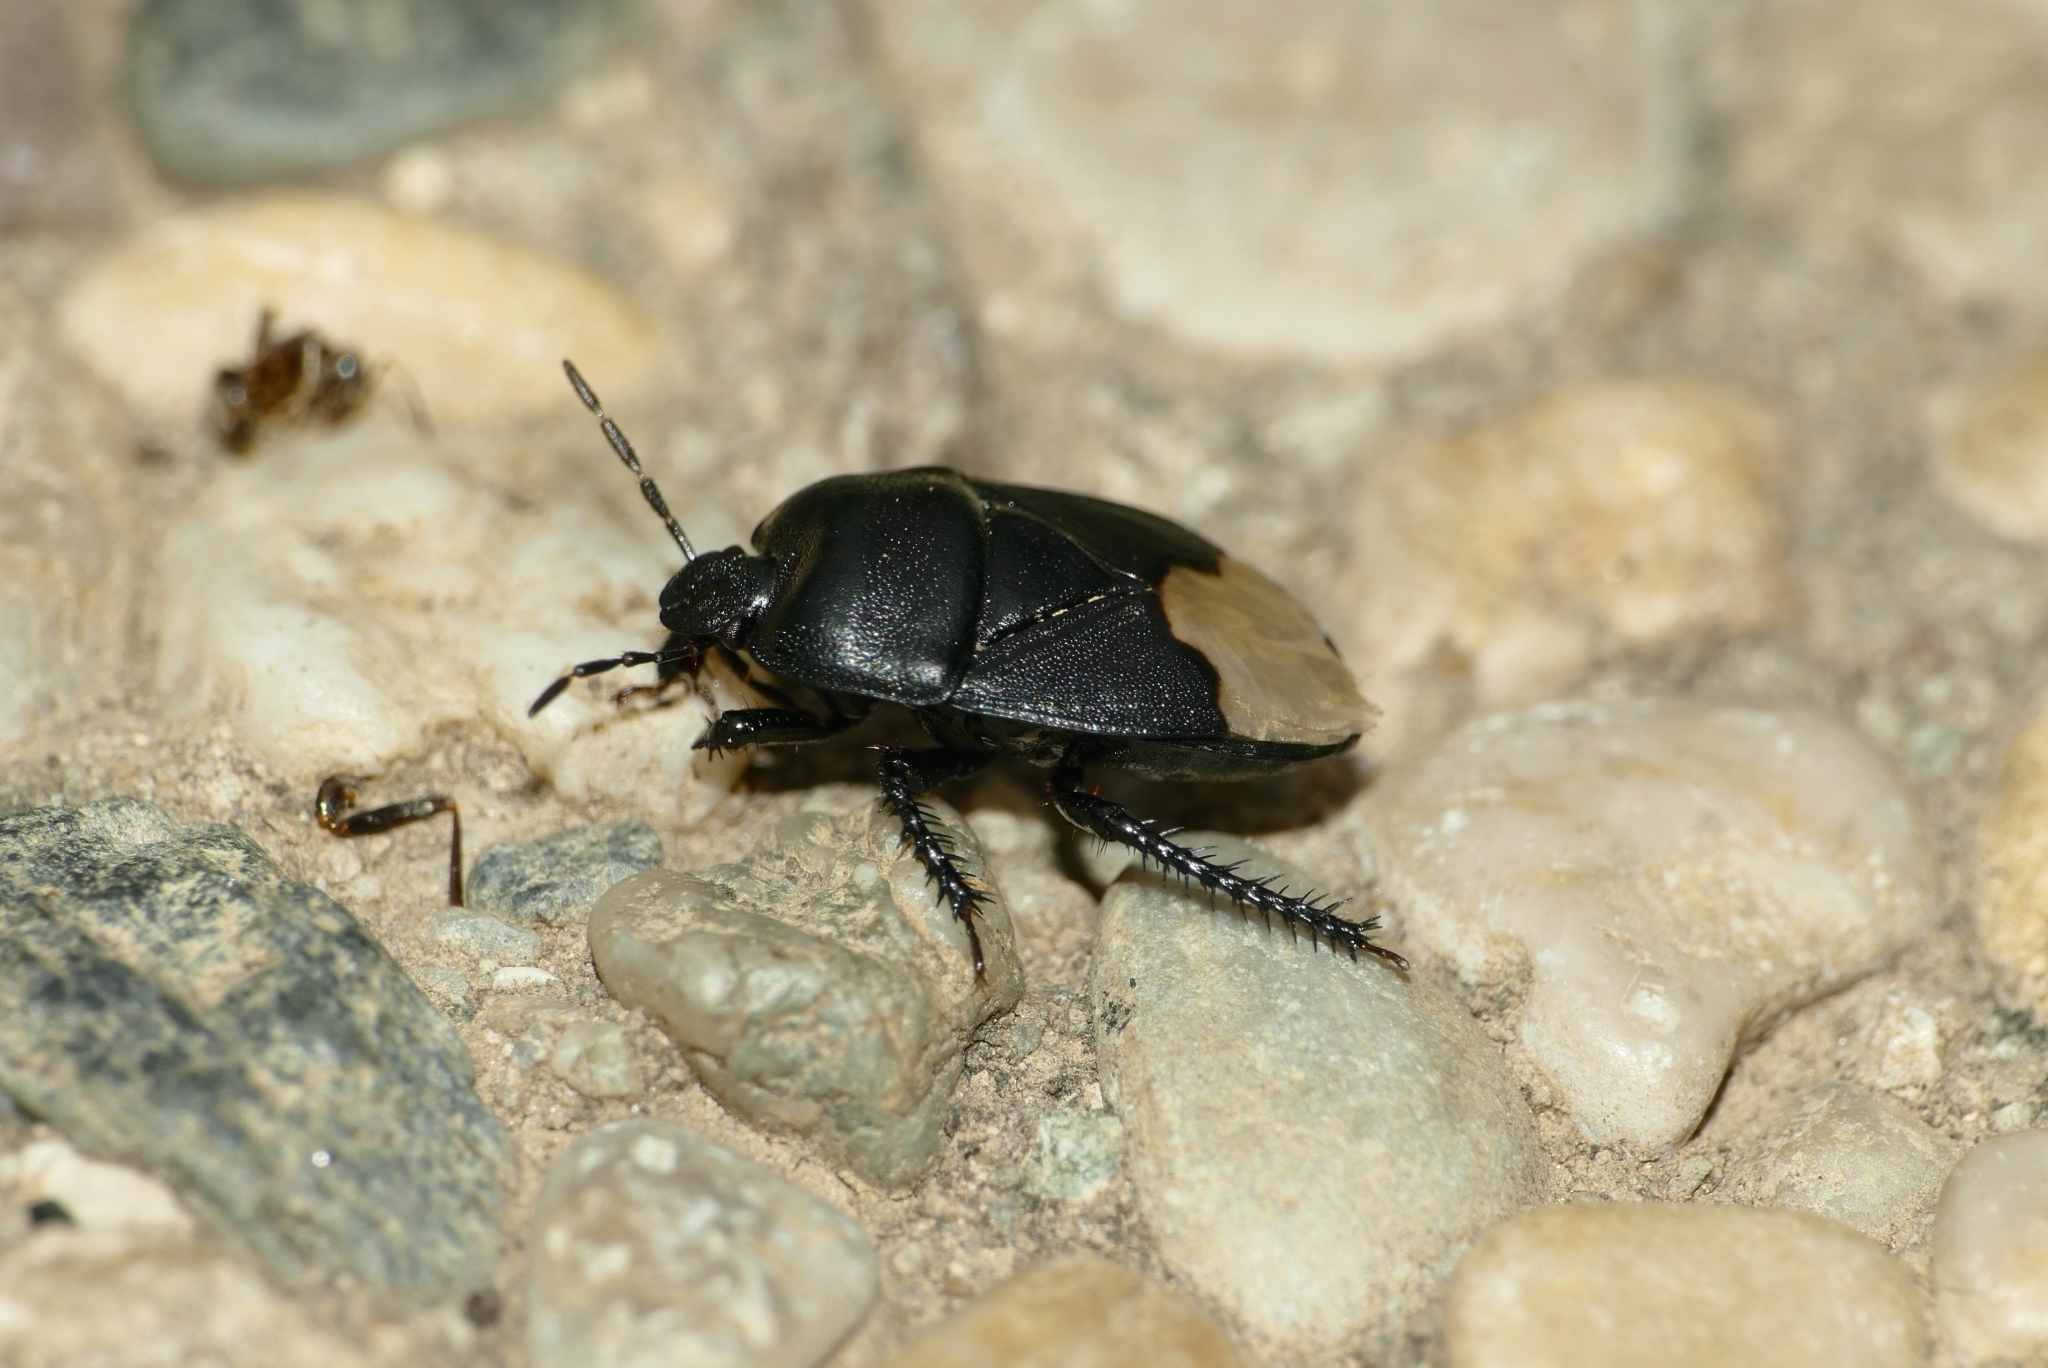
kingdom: Animalia
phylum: Arthropoda
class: Insecta
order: Hemiptera
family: Cydnidae
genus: Cydnus
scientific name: Cydnus aterrimus
